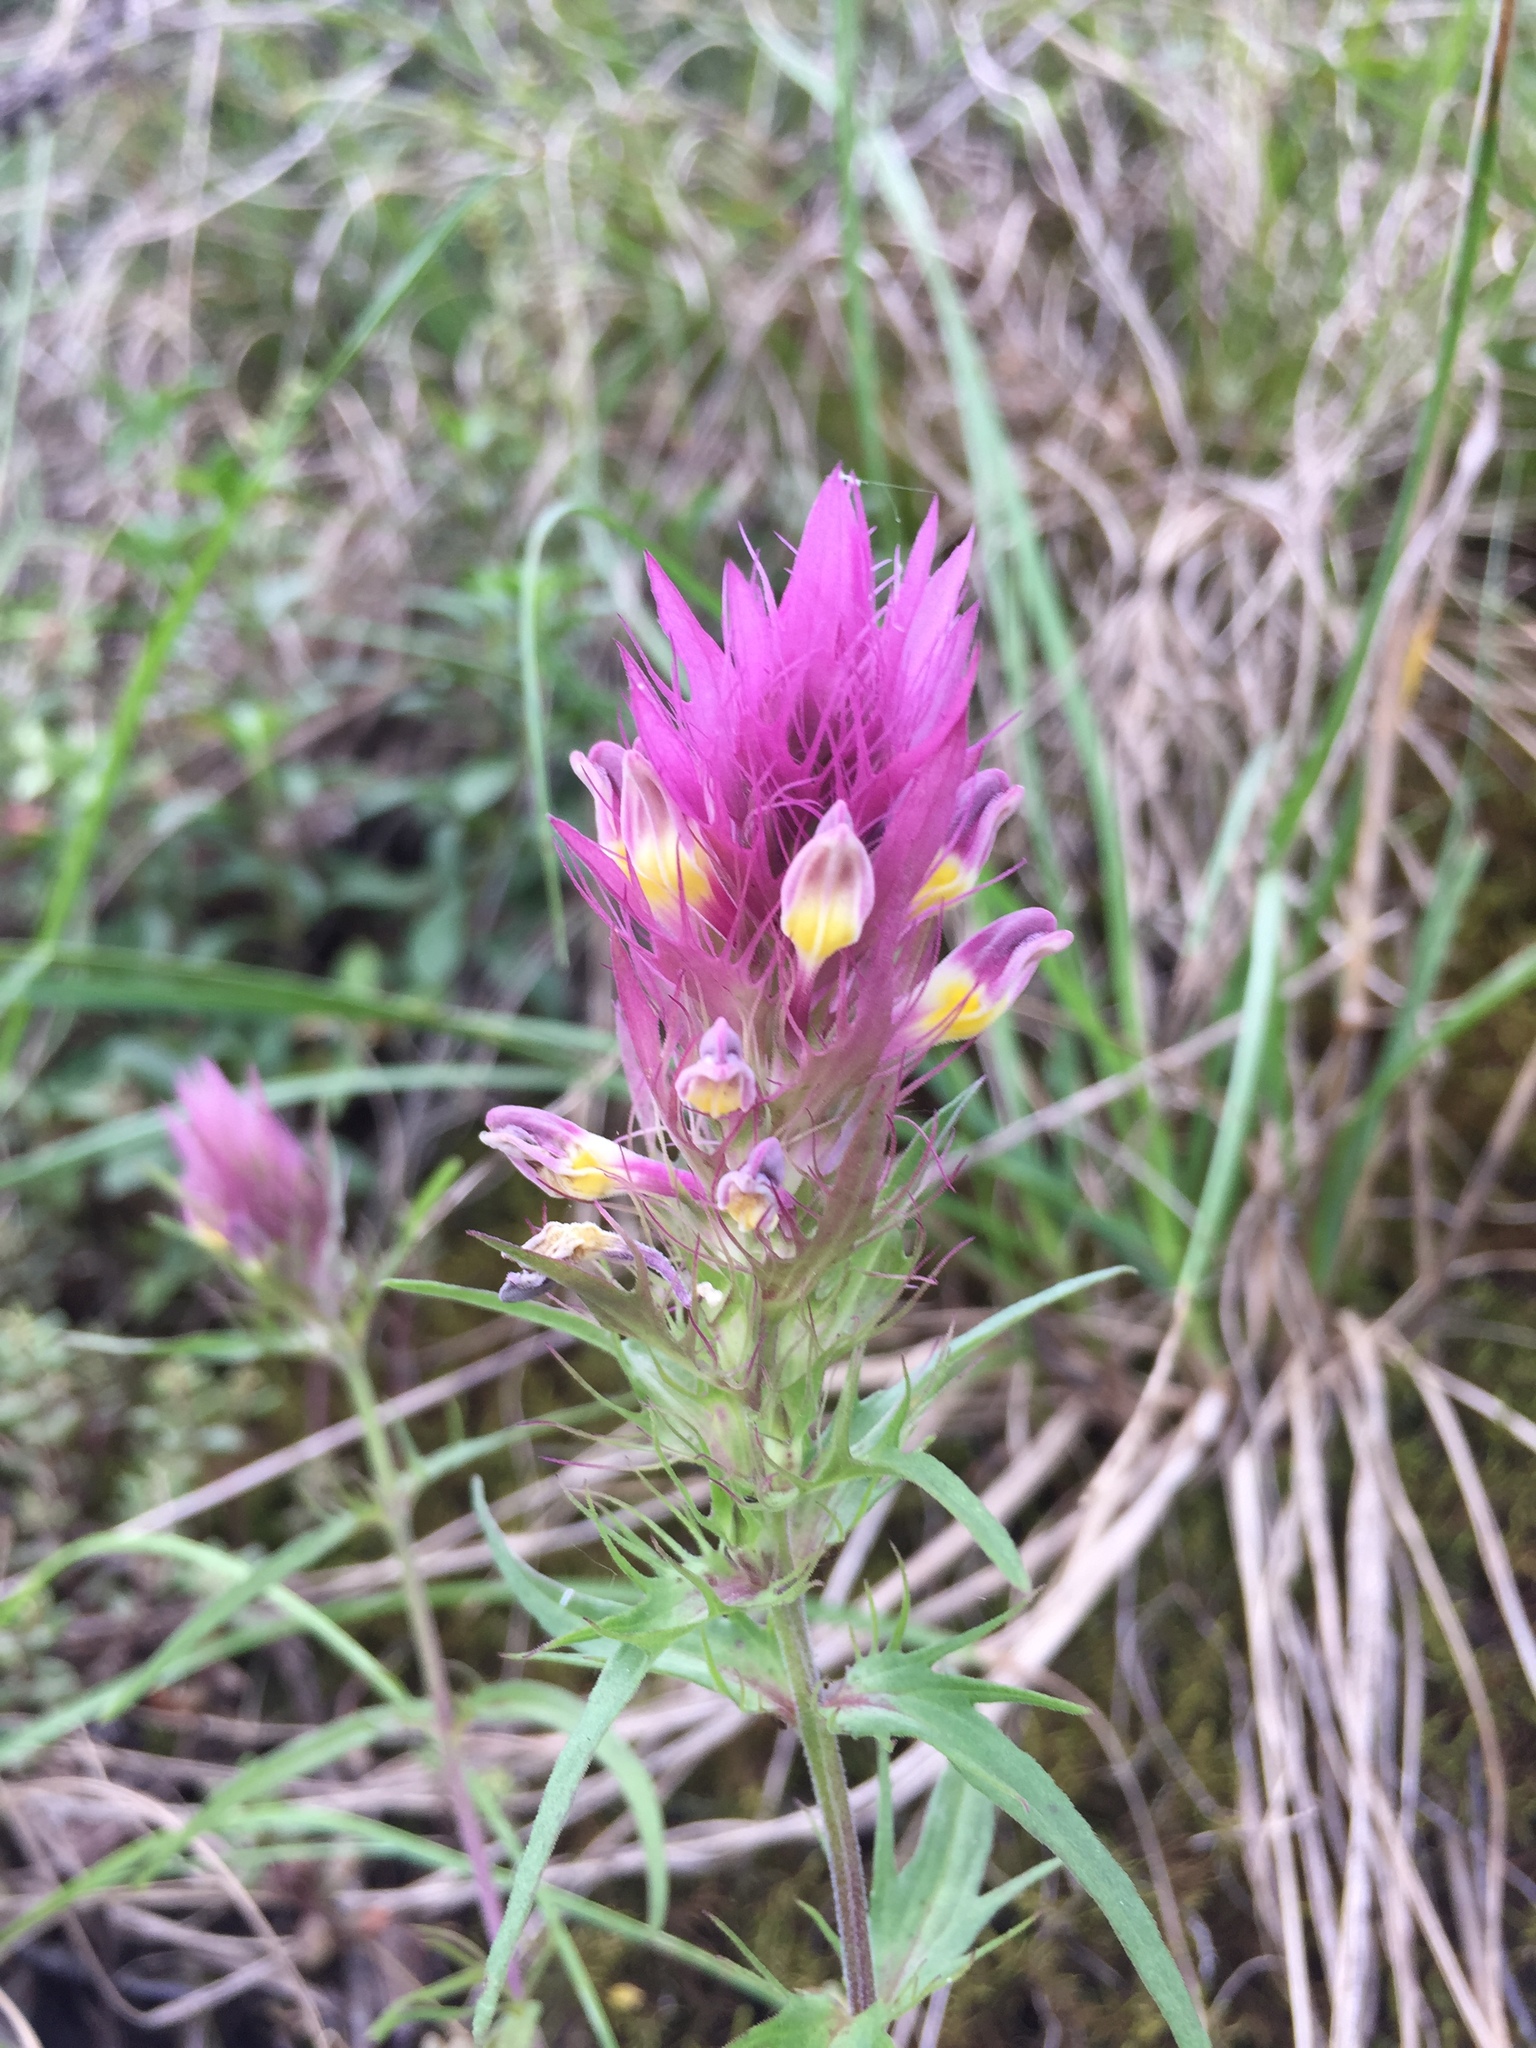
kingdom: Plantae
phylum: Tracheophyta
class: Magnoliopsida
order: Lamiales
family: Orobanchaceae
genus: Melampyrum
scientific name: Melampyrum arvense
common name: Field cow-wheat
